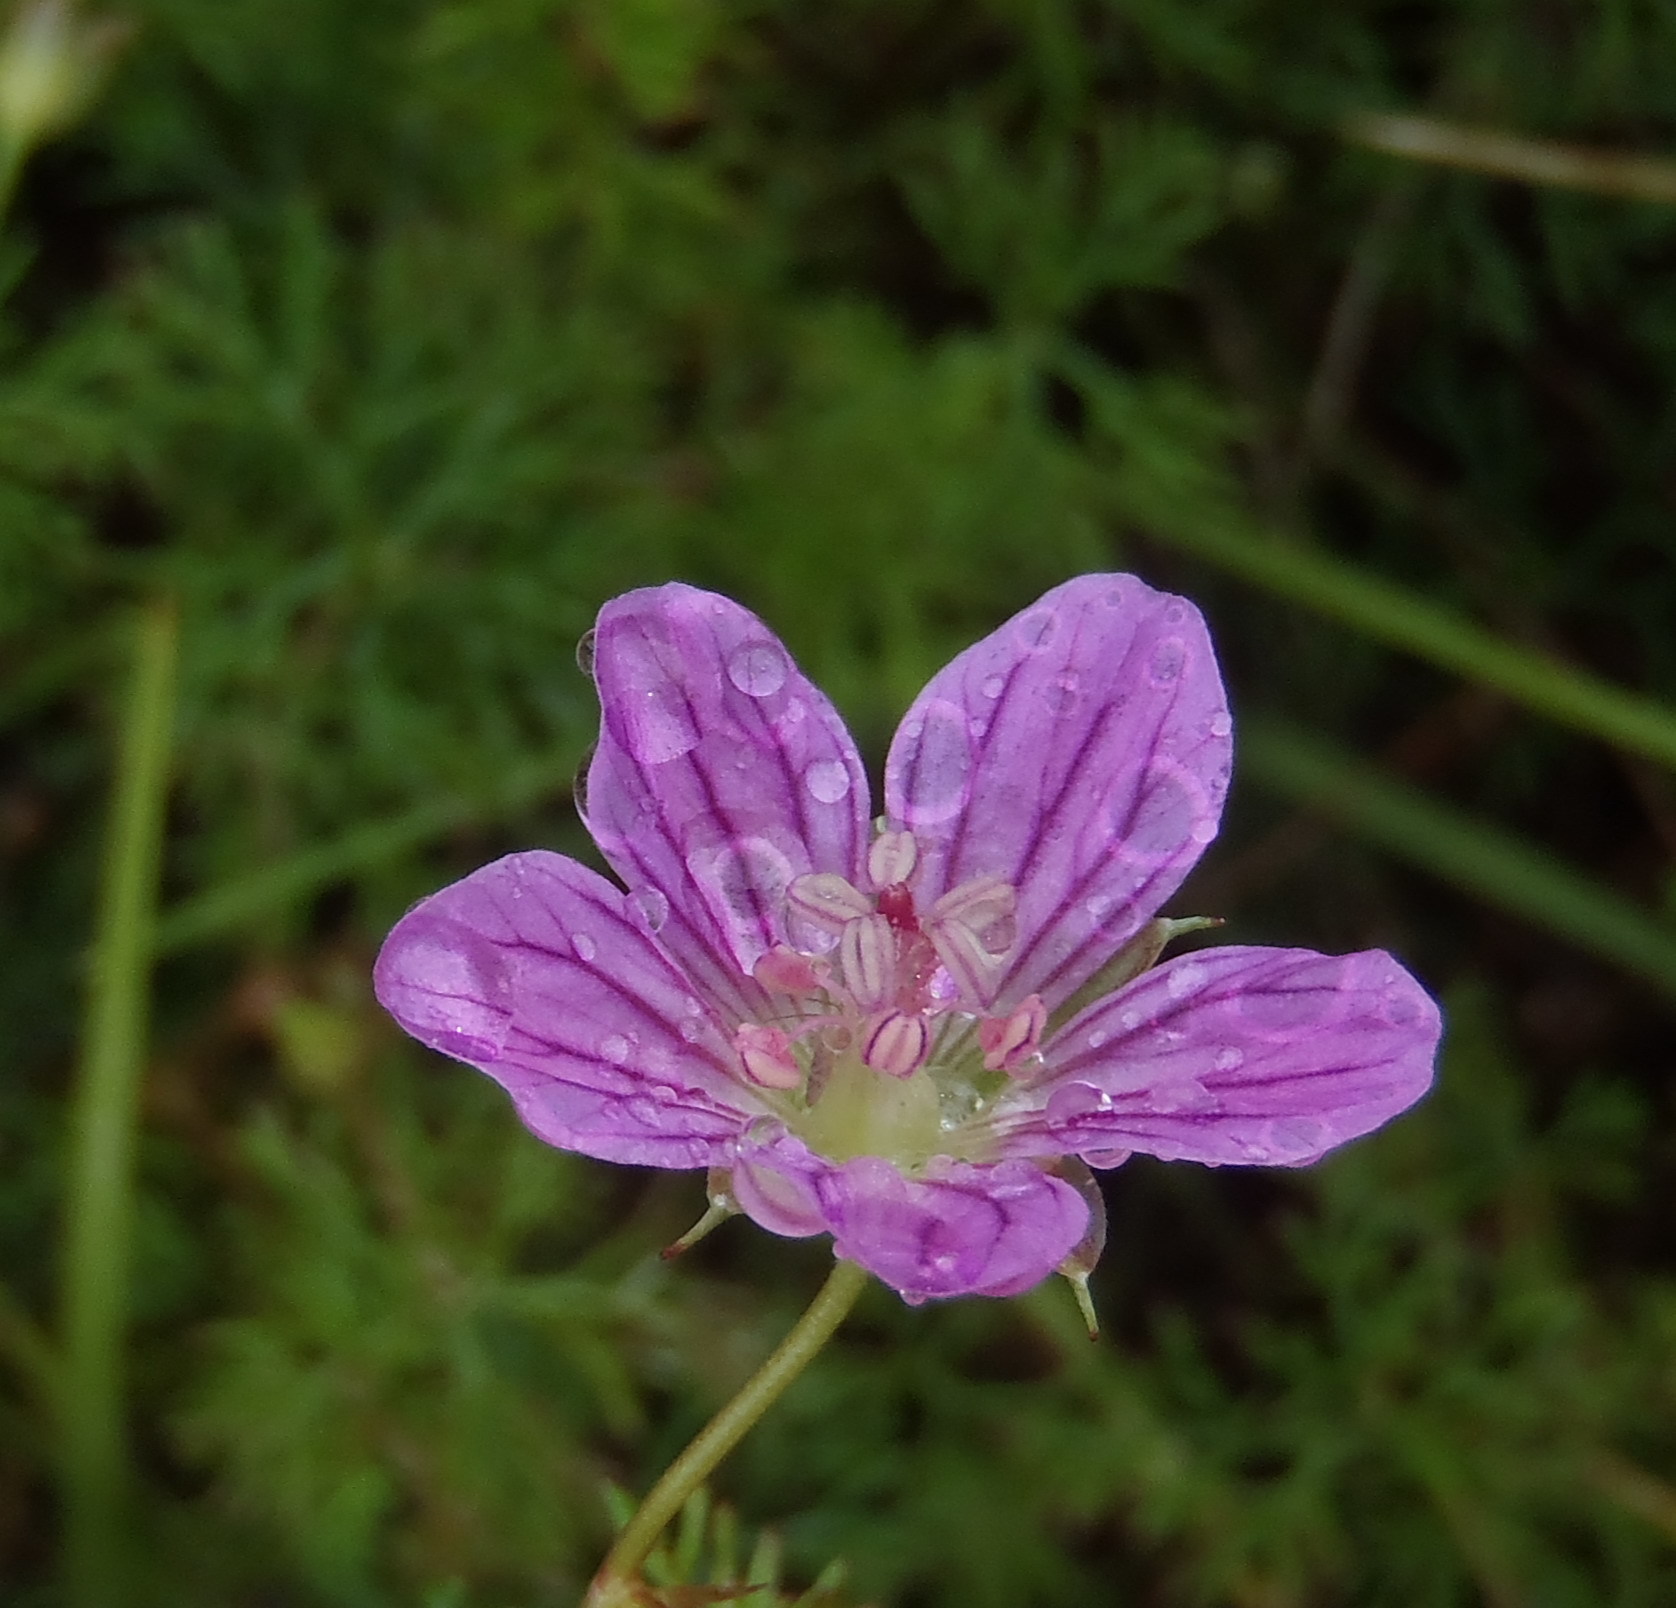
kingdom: Plantae
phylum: Tracheophyta
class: Magnoliopsida
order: Geraniales
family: Geraniaceae
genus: Geranium
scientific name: Geranium incanum
